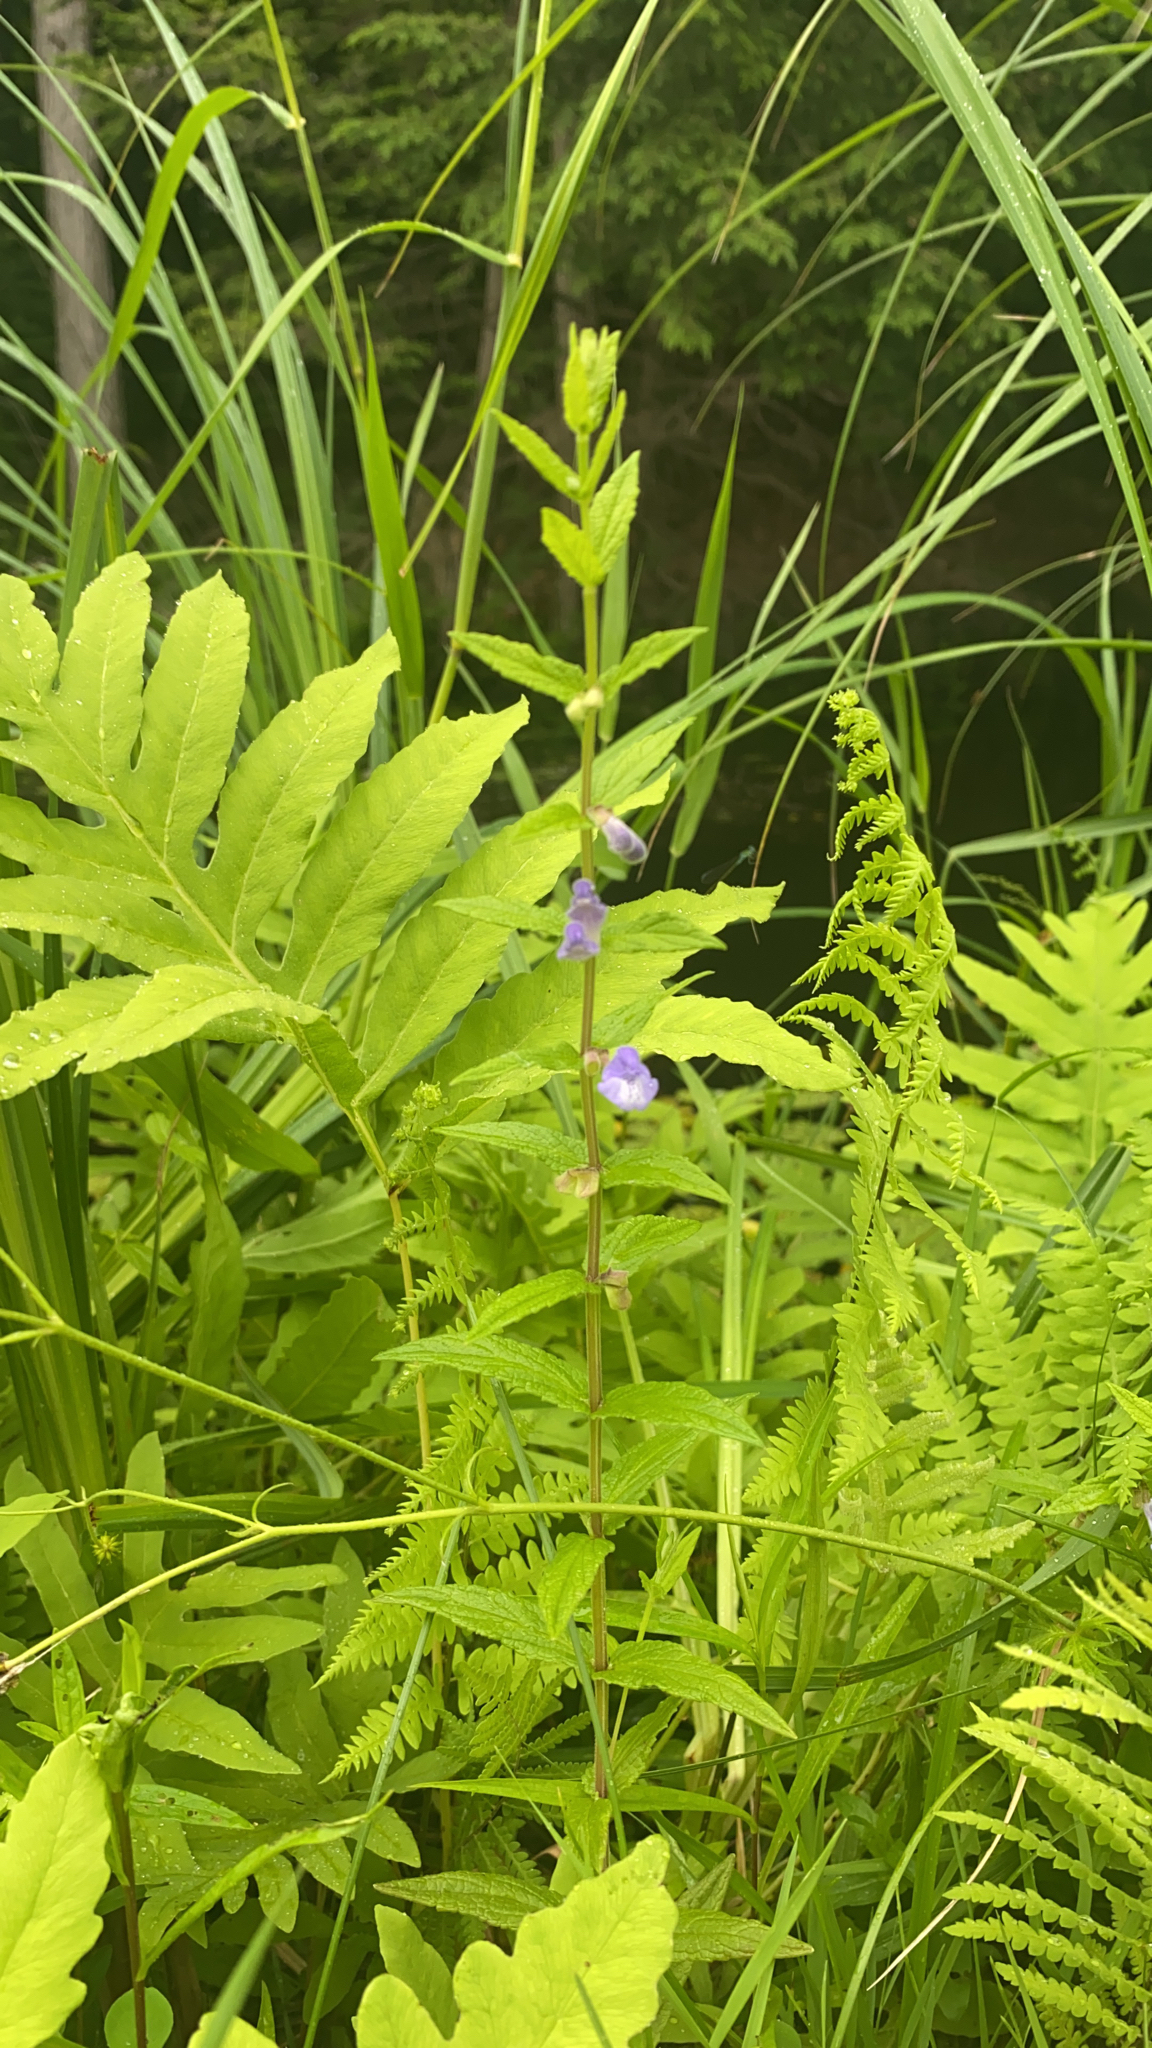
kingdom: Plantae
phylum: Tracheophyta
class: Magnoliopsida
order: Lamiales
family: Lamiaceae
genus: Scutellaria
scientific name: Scutellaria galericulata
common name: Skullcap
